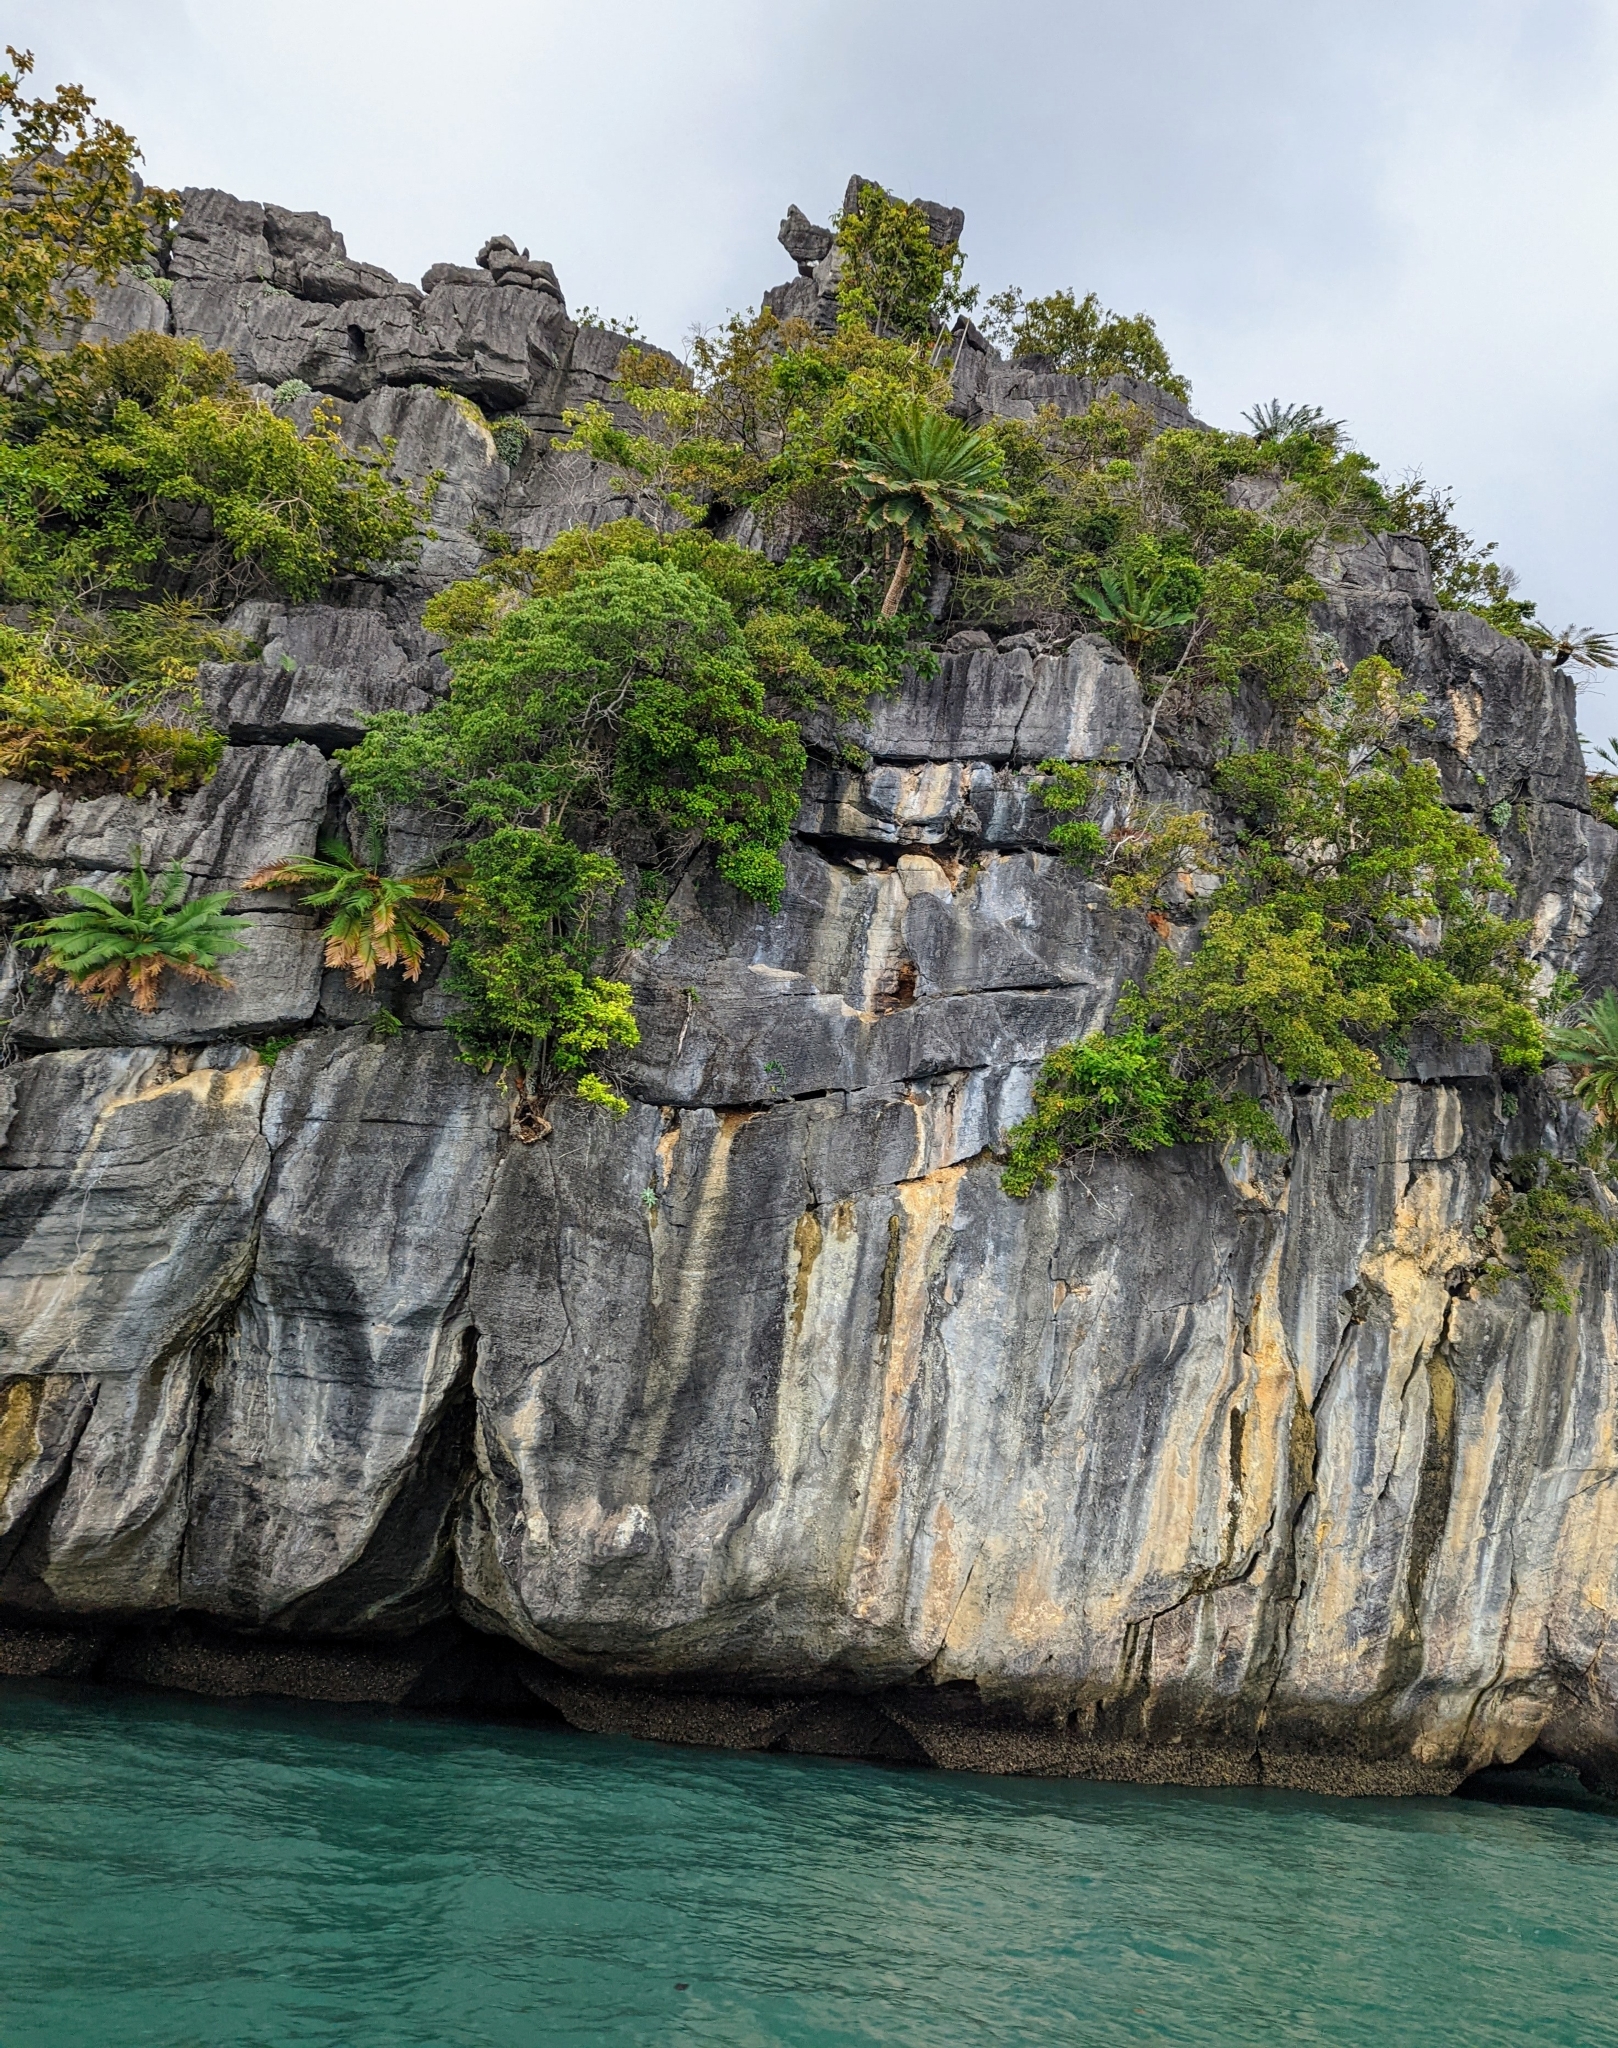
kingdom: Plantae
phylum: Tracheophyta
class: Cycadopsida
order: Cycadales
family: Cycadaceae
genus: Cycas
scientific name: Cycas clivicola
